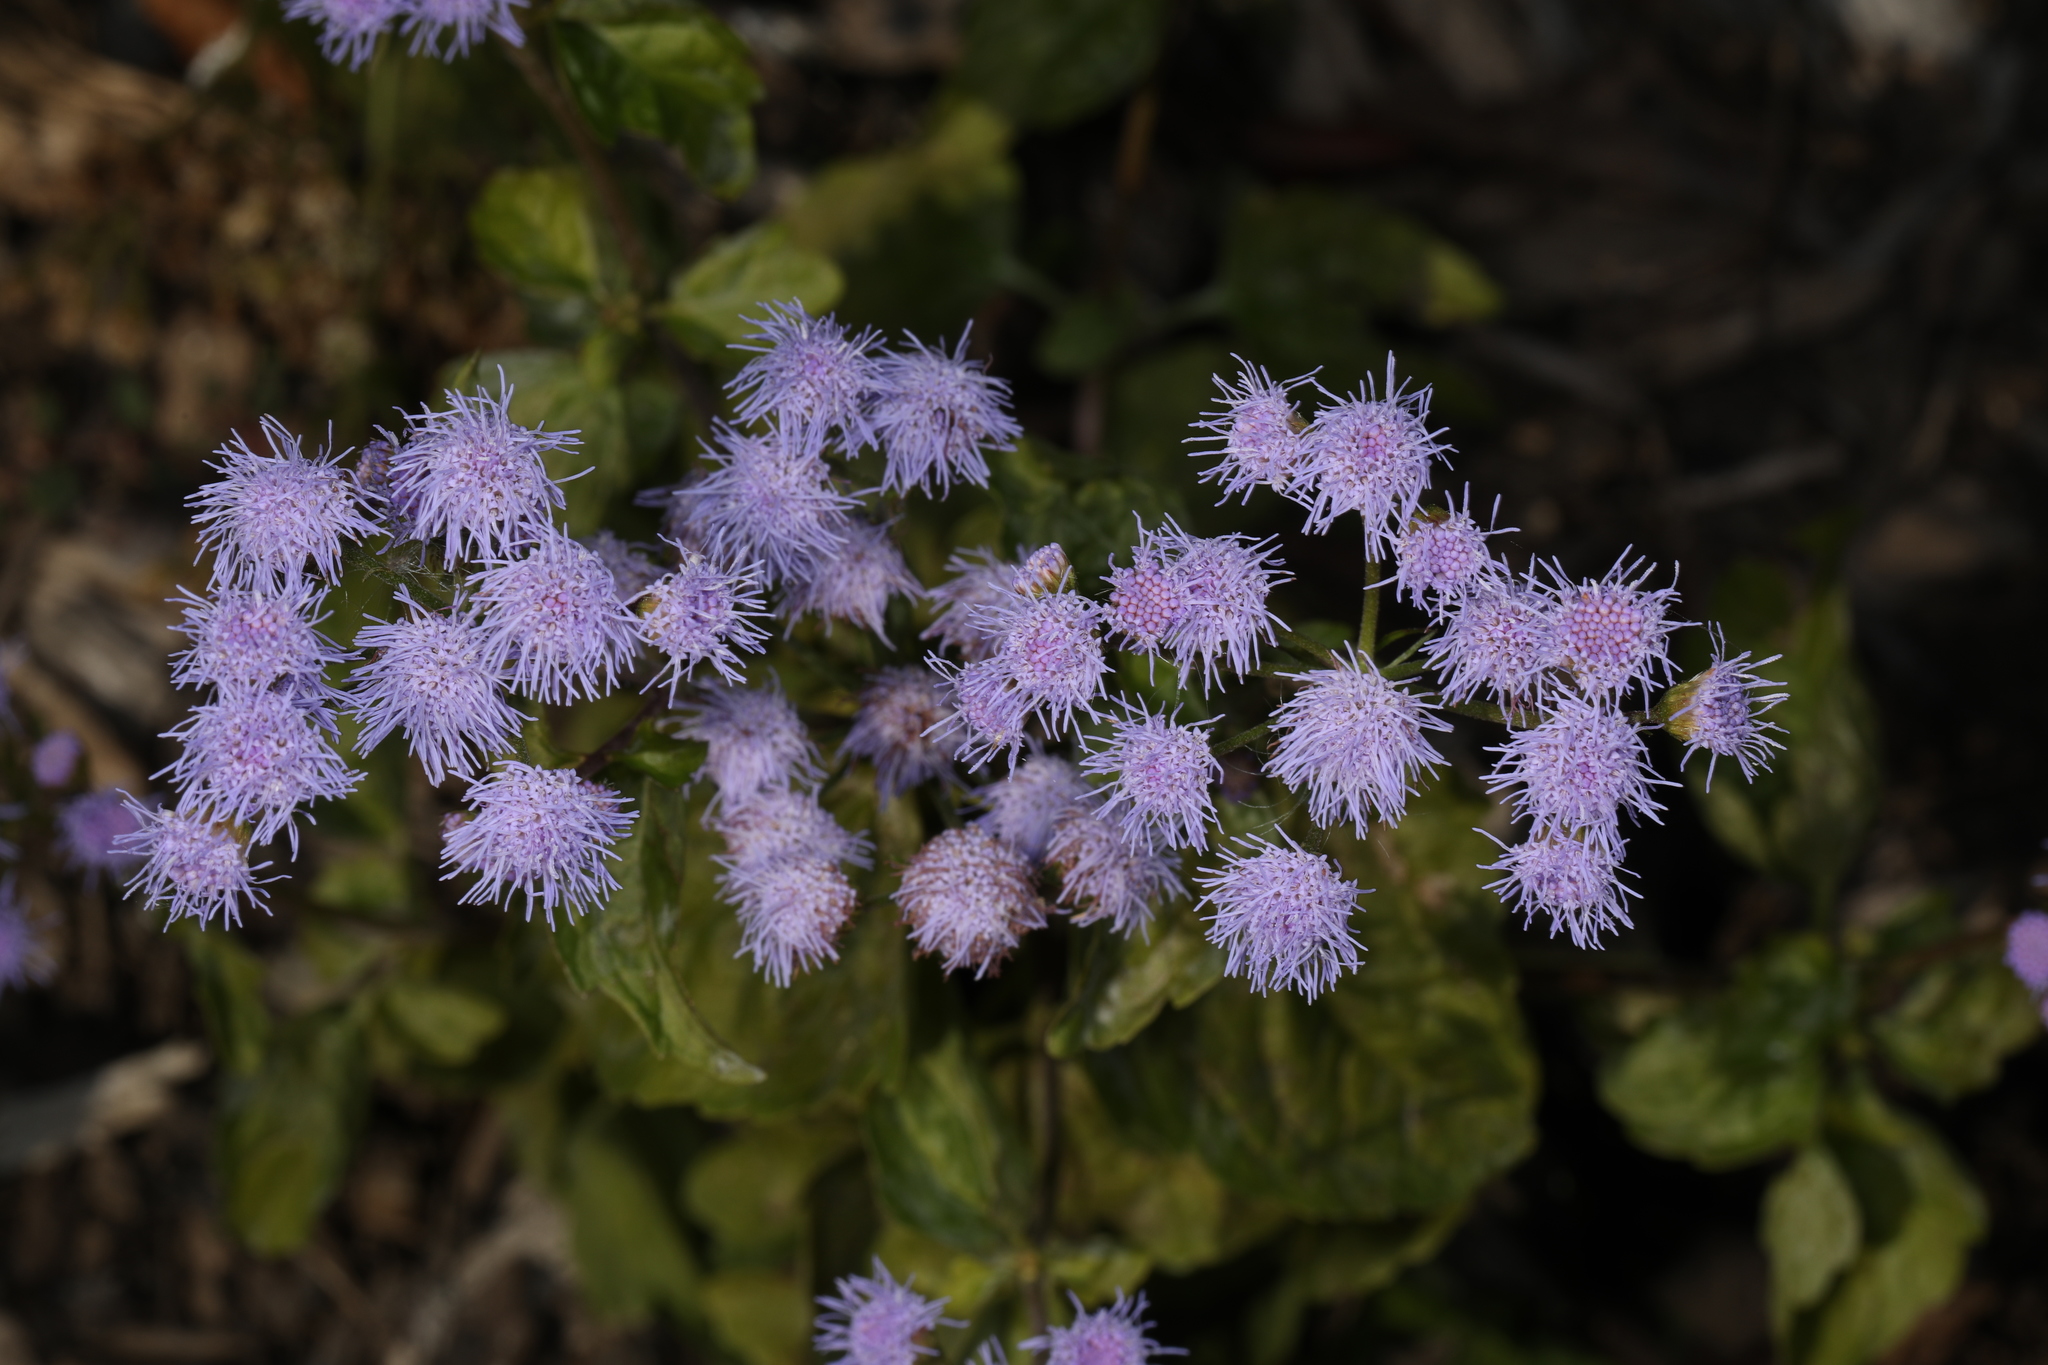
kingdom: Plantae
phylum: Tracheophyta
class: Magnoliopsida
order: Asterales
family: Asteraceae
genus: Conoclinium
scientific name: Conoclinium coelestinum
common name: Blue mistflower
